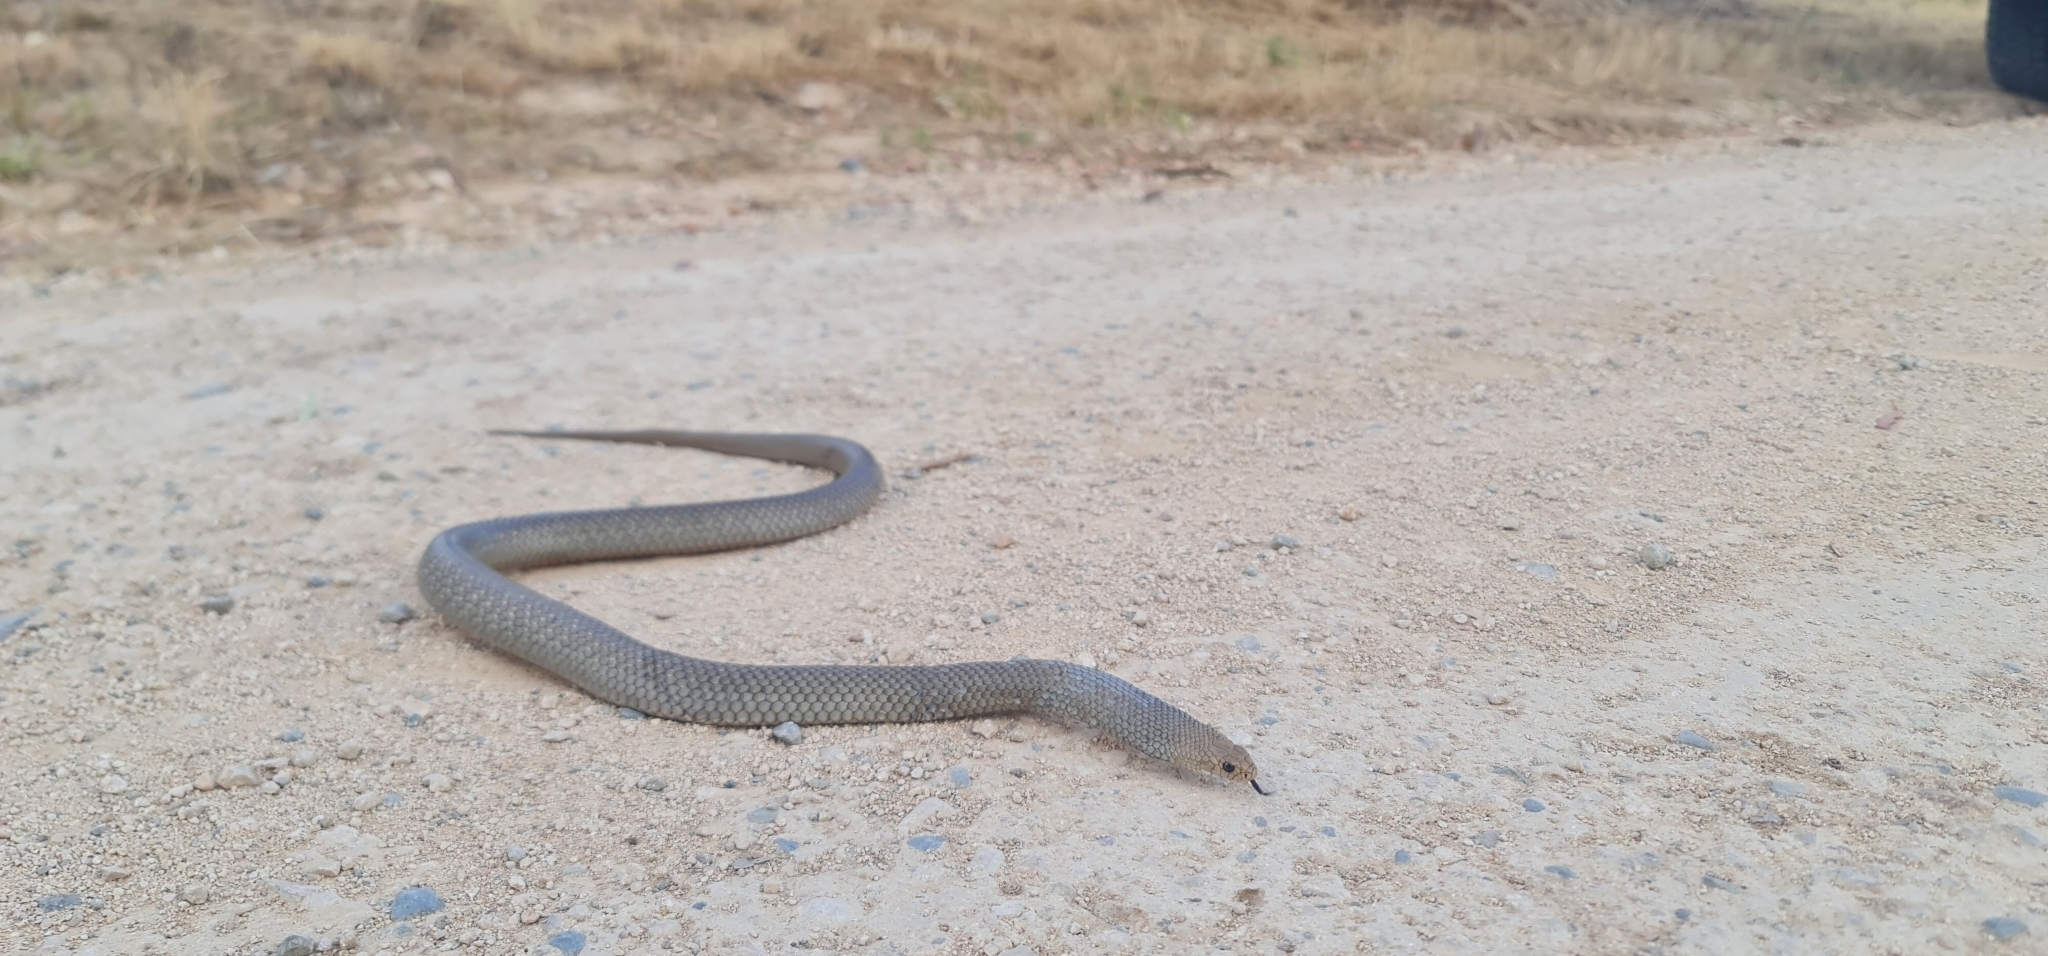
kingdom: Animalia
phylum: Chordata
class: Squamata
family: Elapidae
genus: Pseudonaja
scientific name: Pseudonaja textilis
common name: Eastern brown snake
